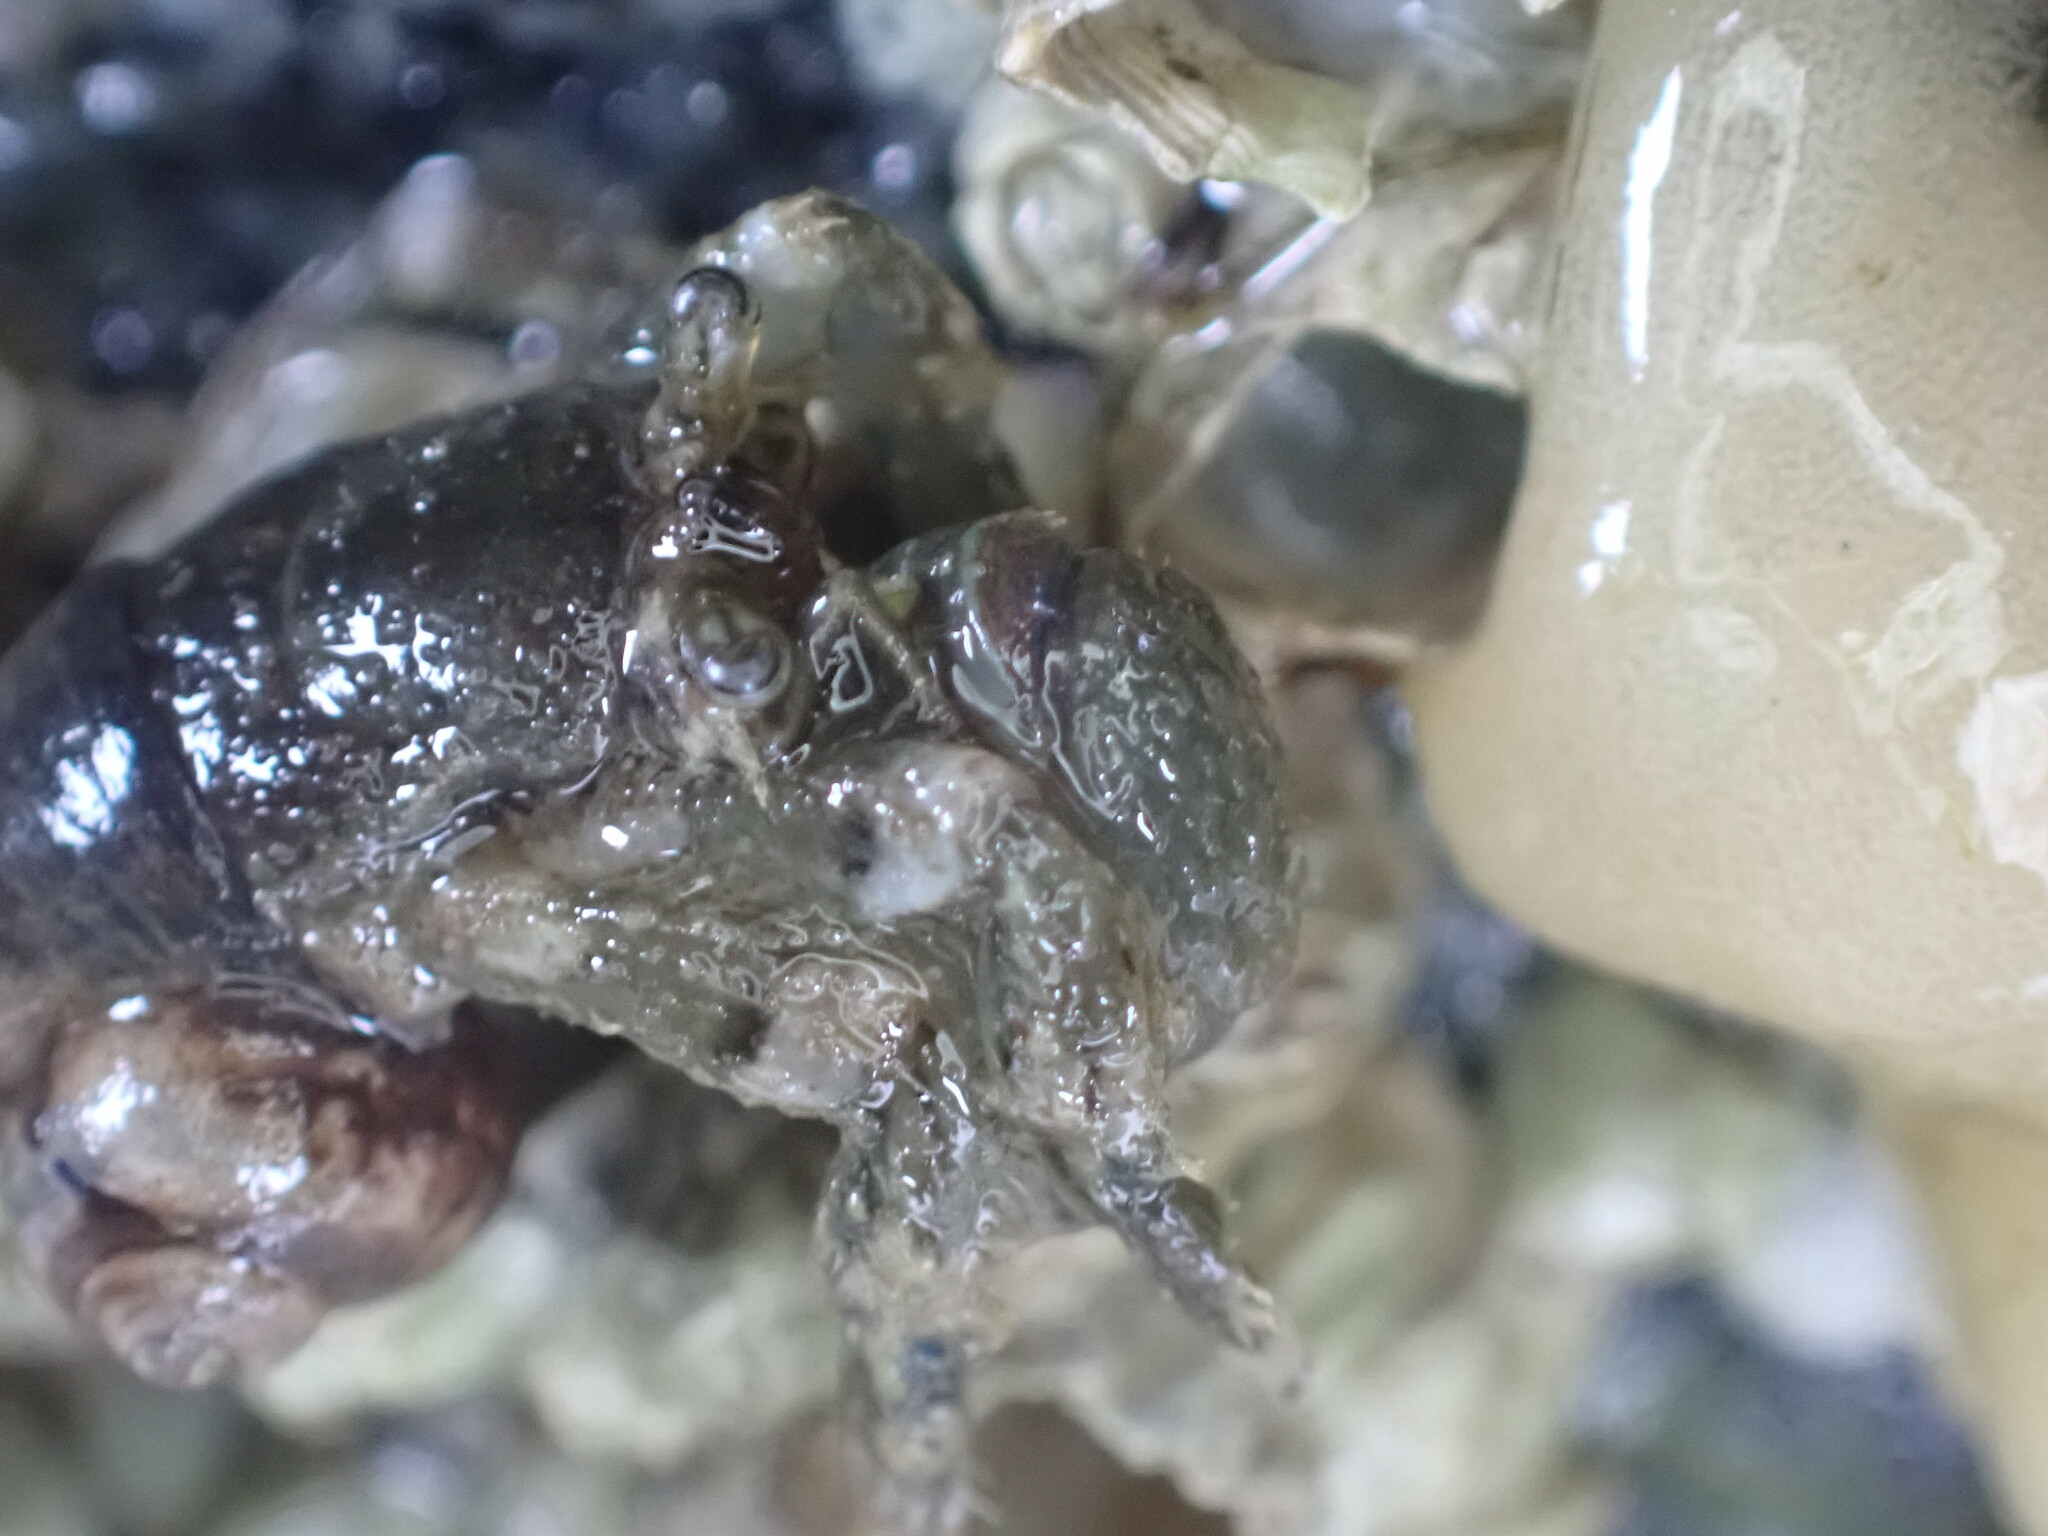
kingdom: Animalia
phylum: Arthropoda
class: Malacostraca
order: Decapoda
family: Paguridae
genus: Pagurus
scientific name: Pagurus hirsutiusculus
